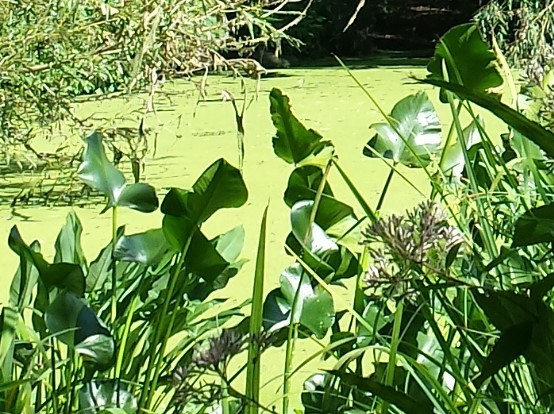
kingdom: Plantae
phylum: Tracheophyta
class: Magnoliopsida
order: Nymphaeales
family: Nymphaeaceae
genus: Nuphar
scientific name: Nuphar advena
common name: Spatter-dock
